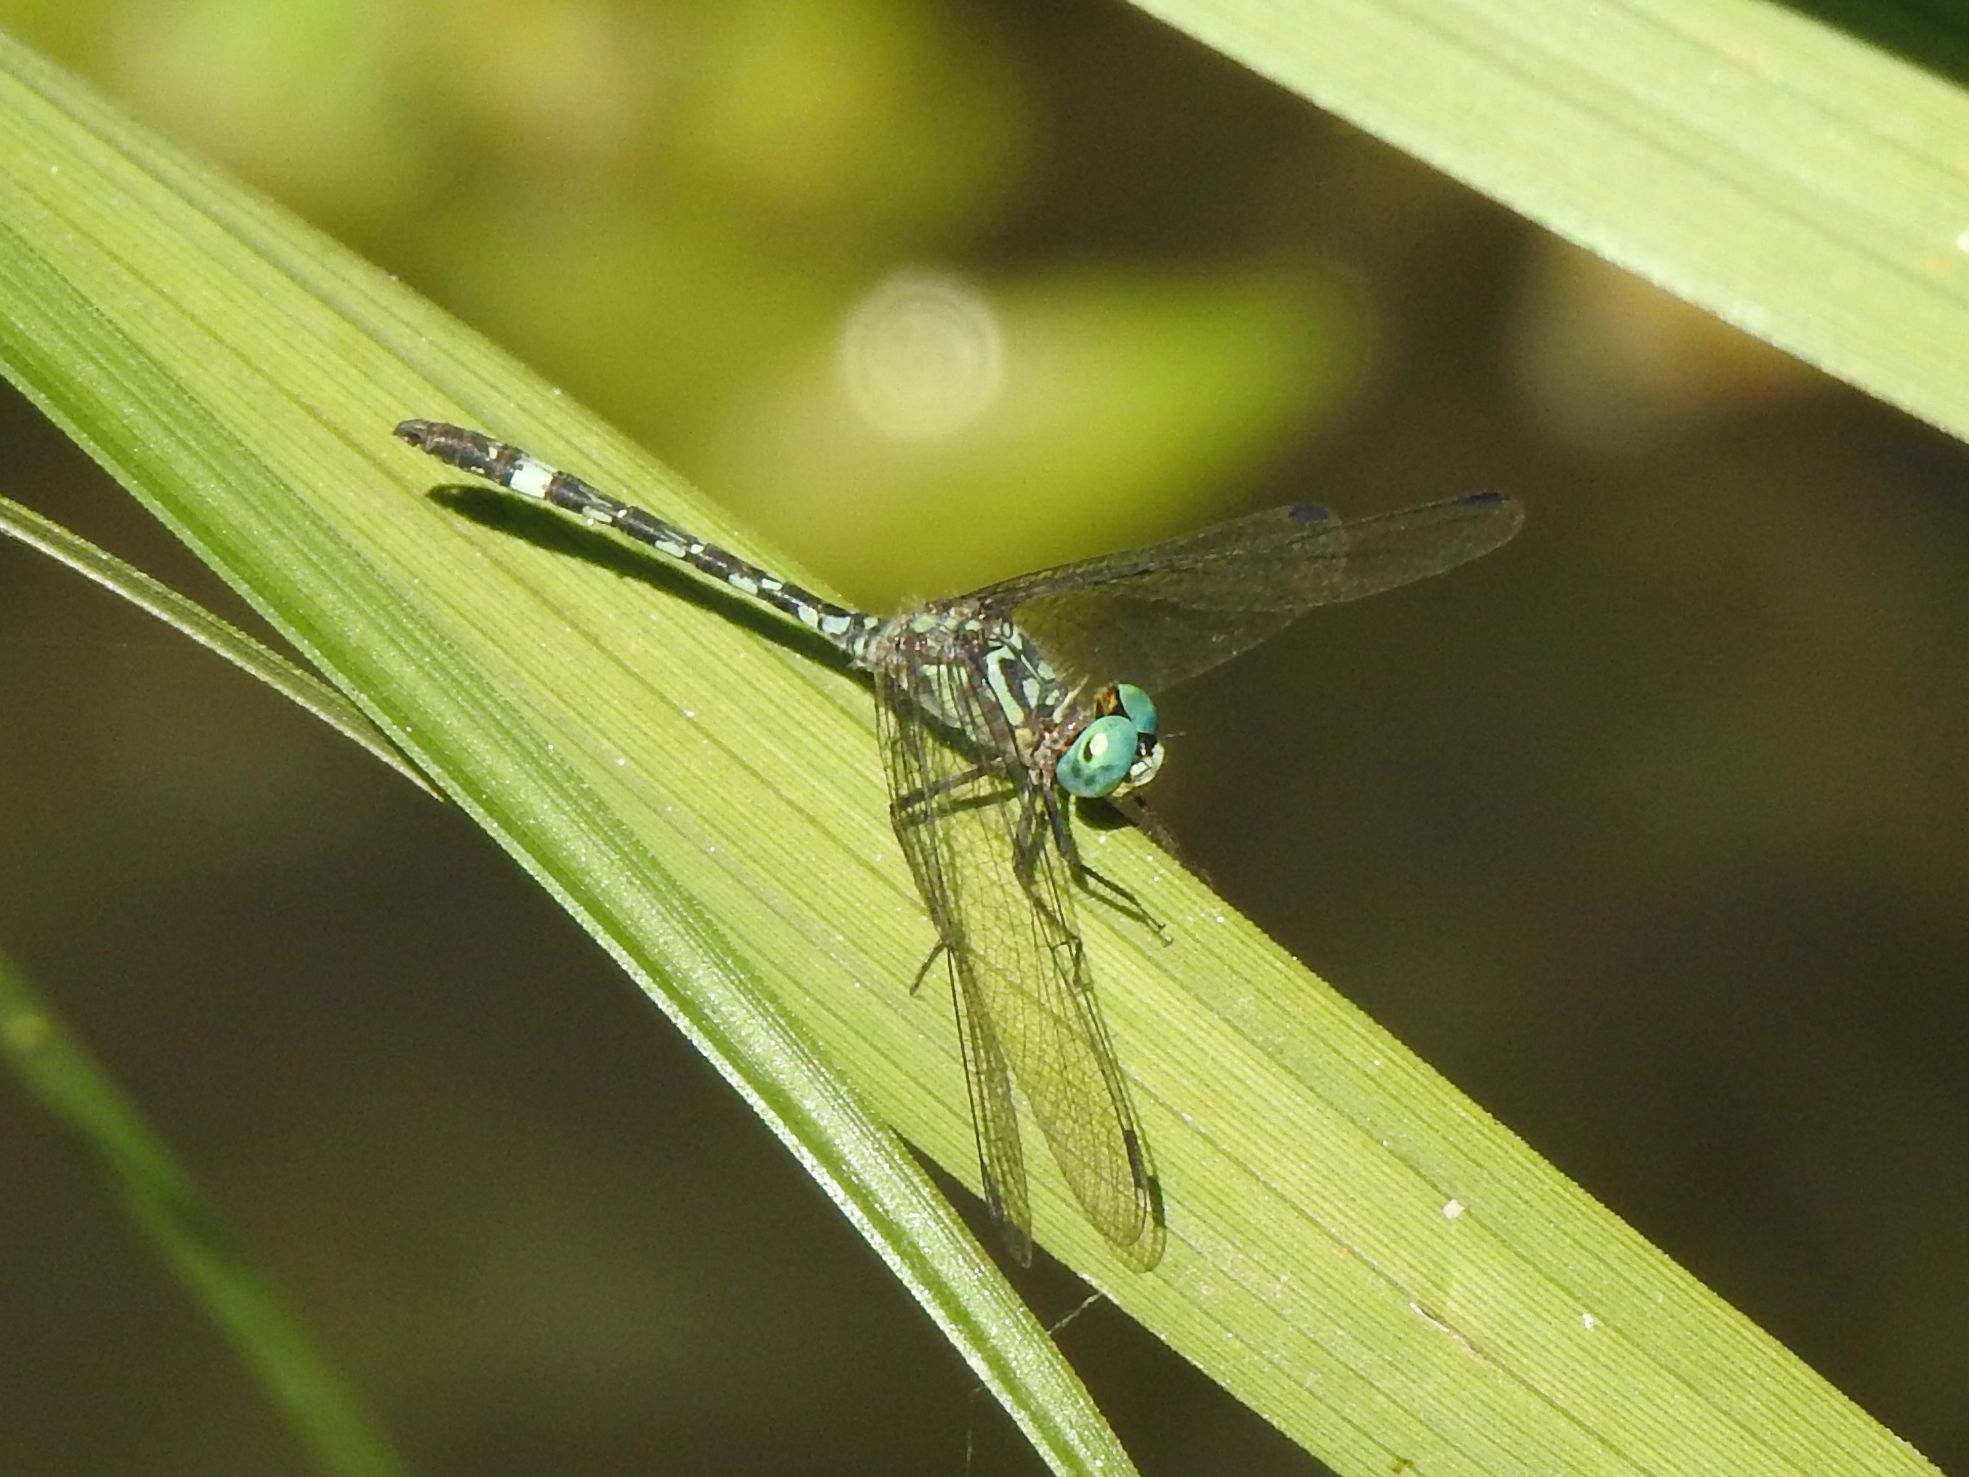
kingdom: Animalia
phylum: Arthropoda
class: Insecta
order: Odonata
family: Libellulidae
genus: Notiothemis
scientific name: Notiothemis jonesi
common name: Eastern elf
